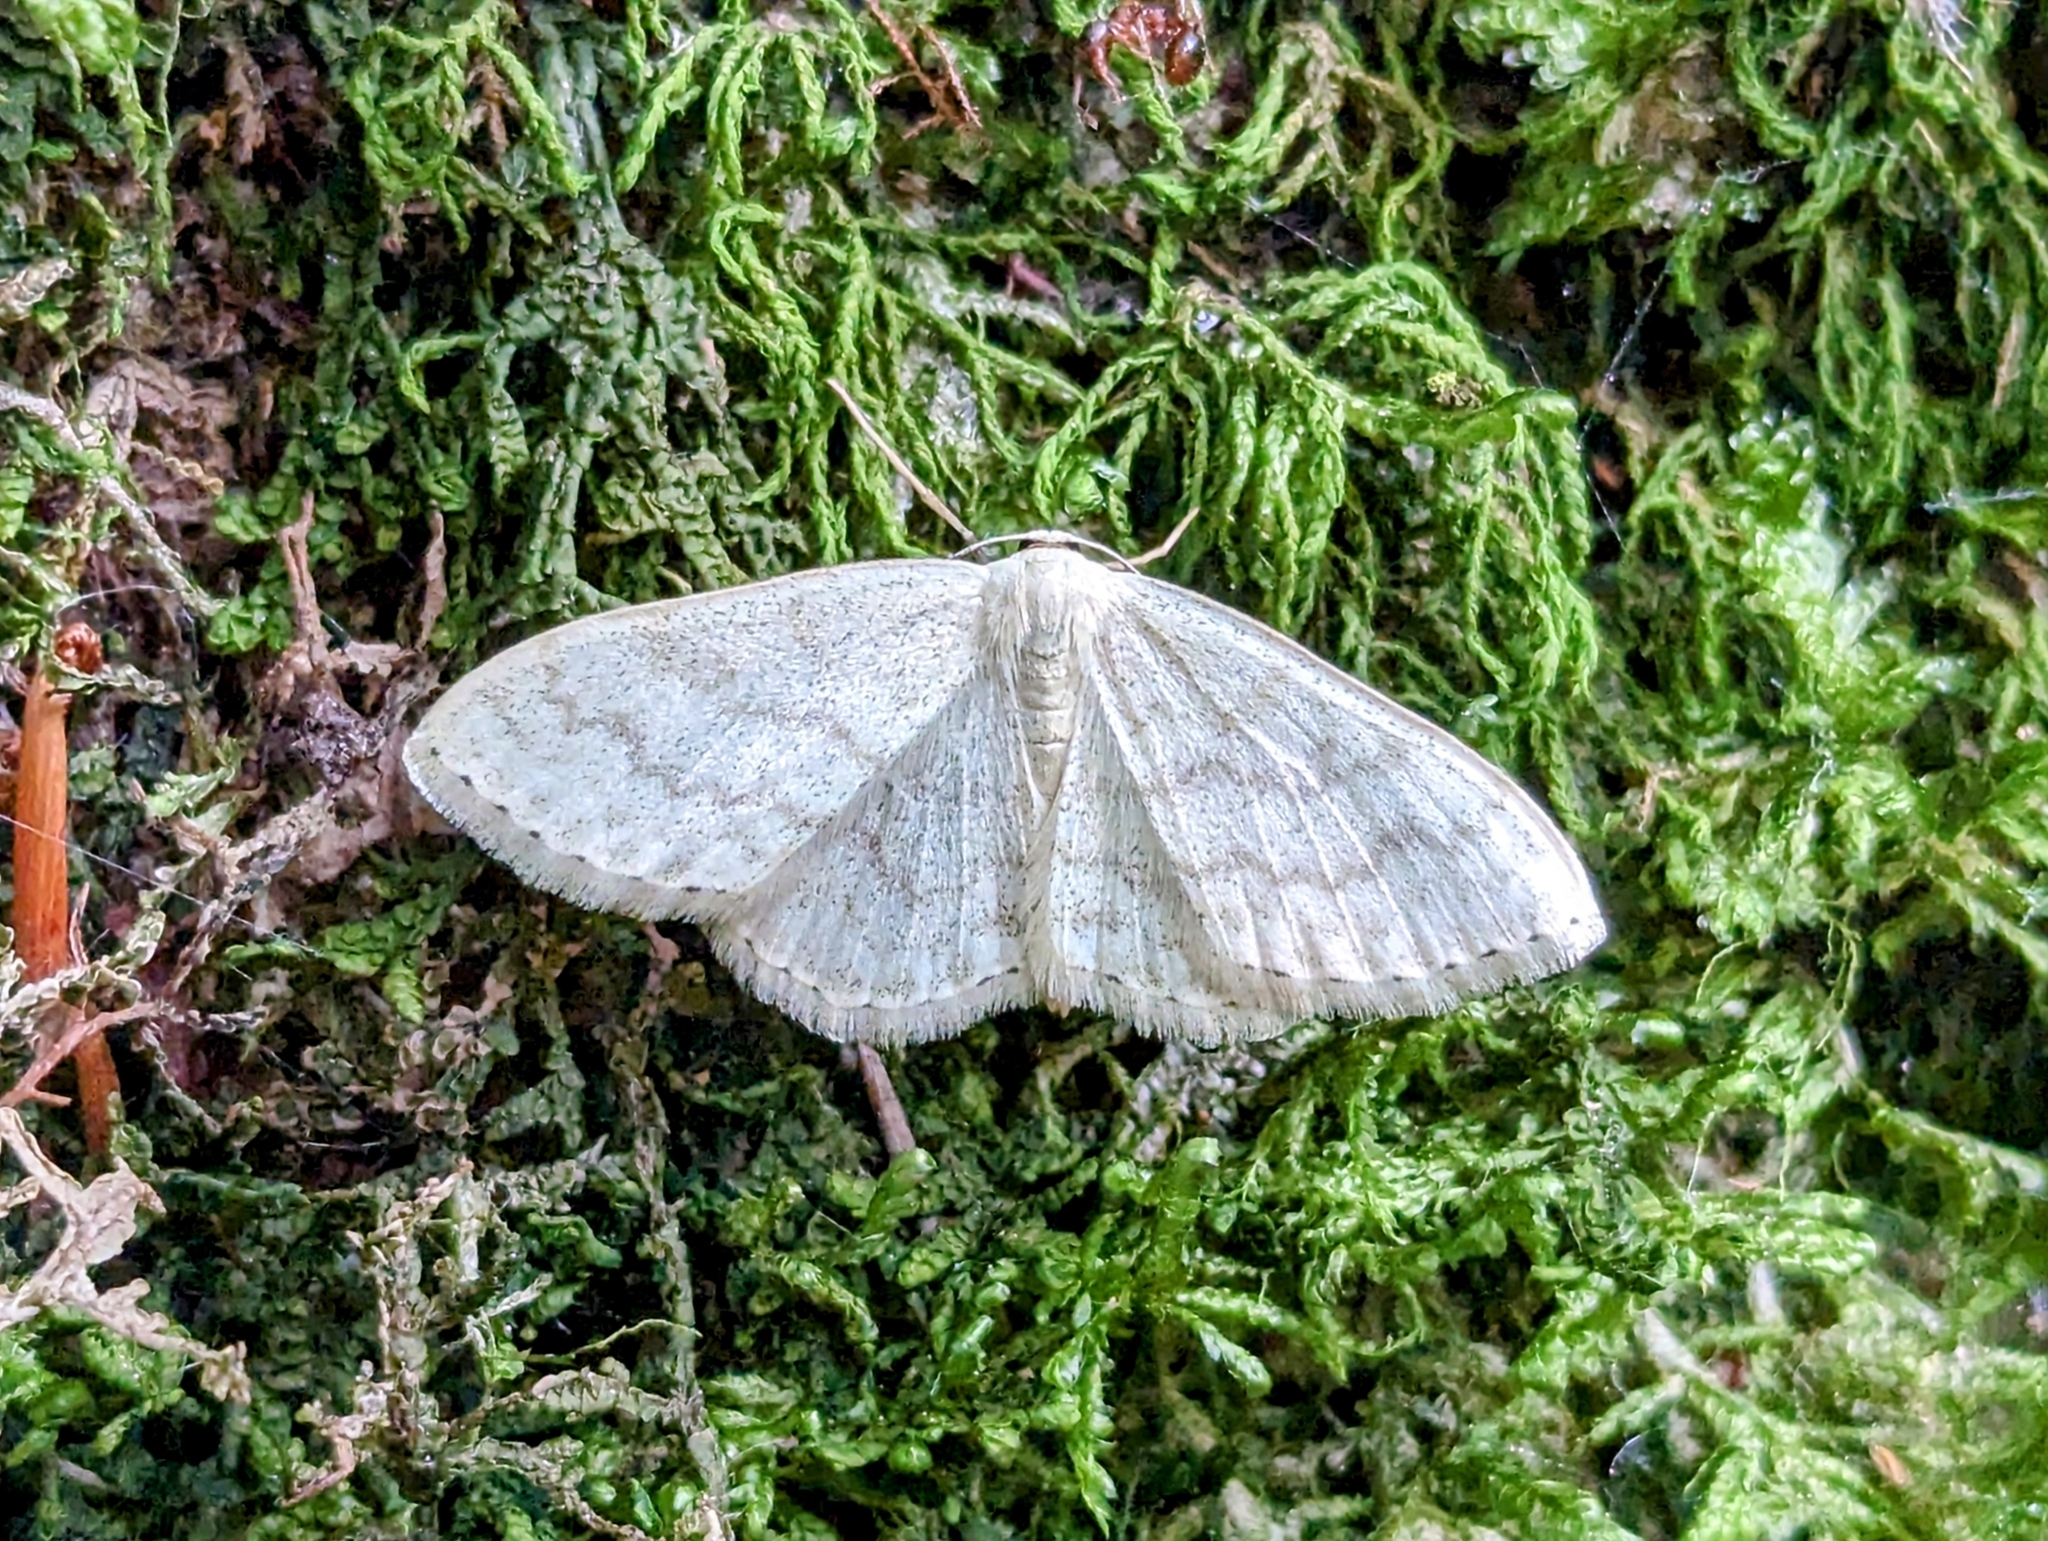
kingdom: Animalia
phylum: Arthropoda
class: Insecta
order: Lepidoptera
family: Geometridae
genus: Scopula
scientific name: Scopula floslactata
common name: Cream wave
